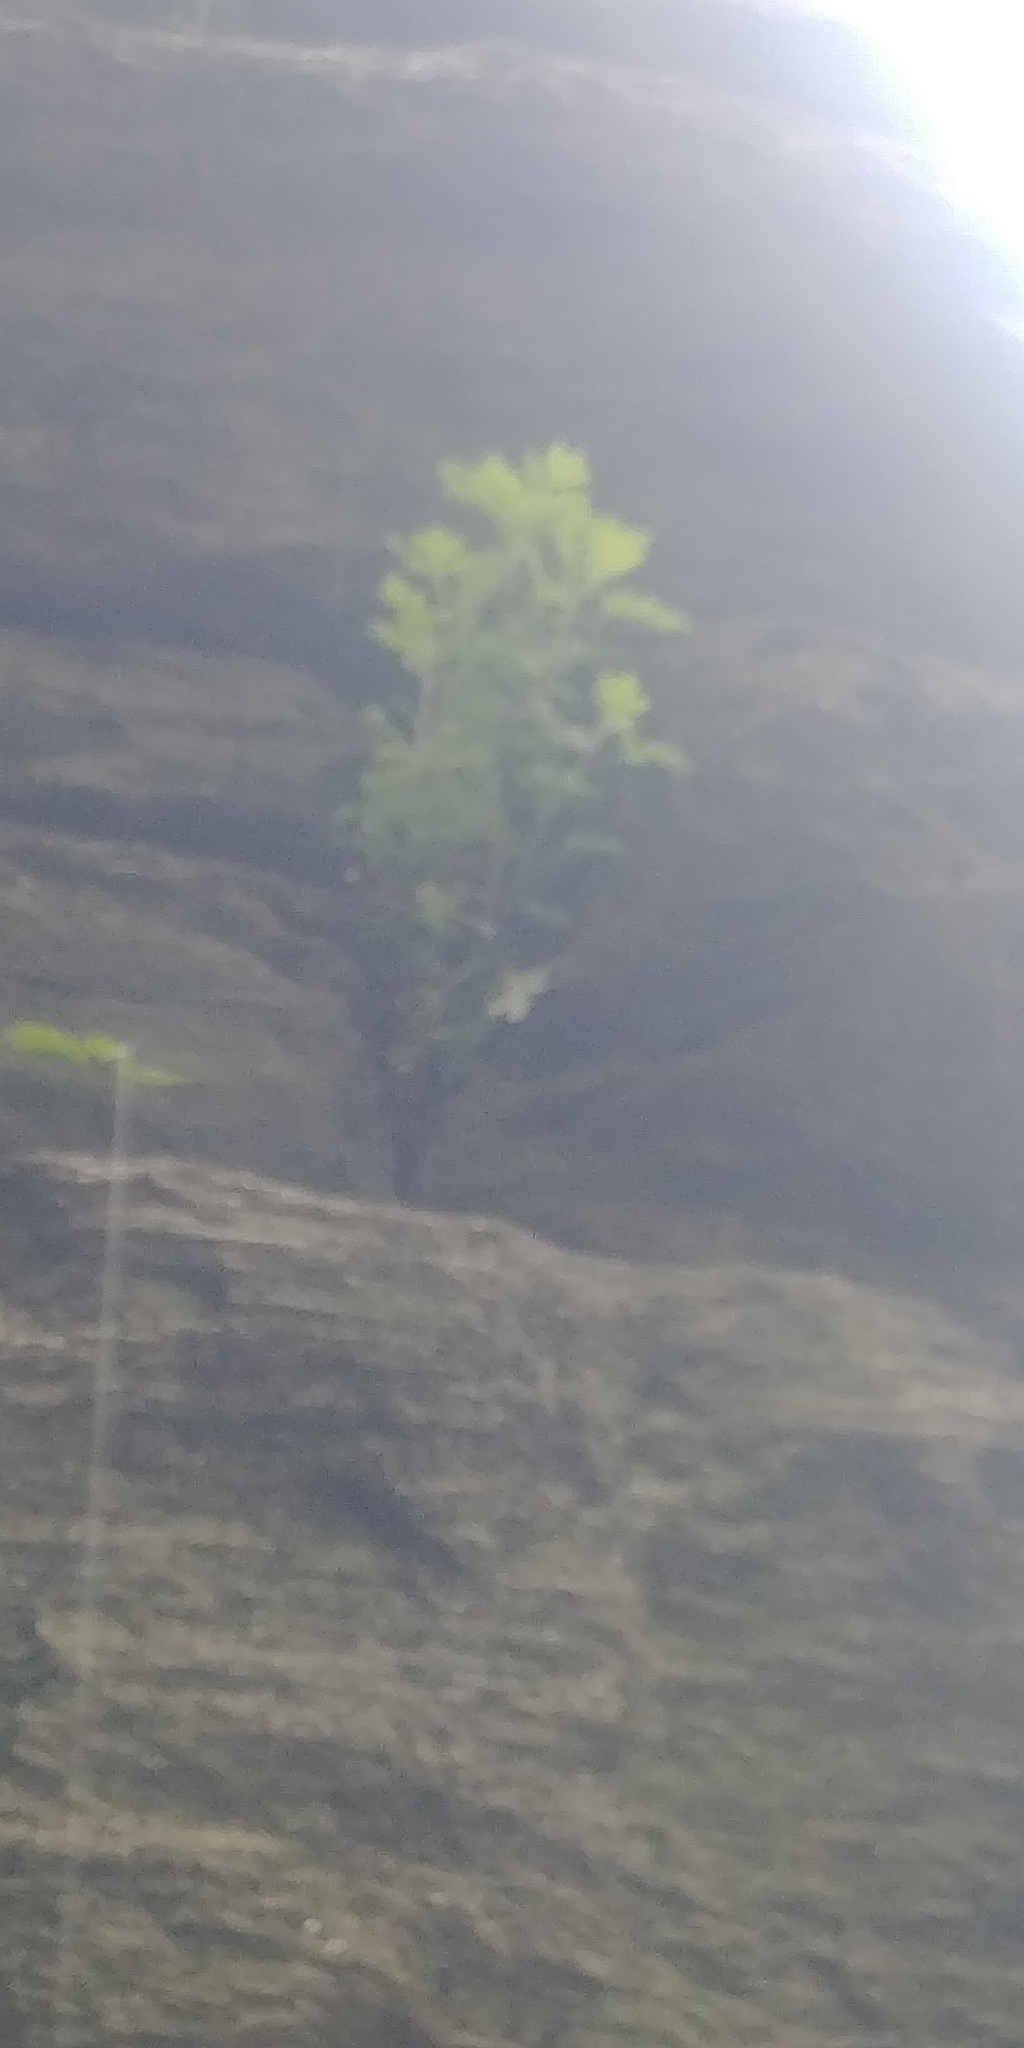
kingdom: Plantae
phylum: Tracheophyta
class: Magnoliopsida
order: Asterales
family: Asteraceae
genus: Artemisia
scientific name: Artemisia vulgaris
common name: Mugwort
